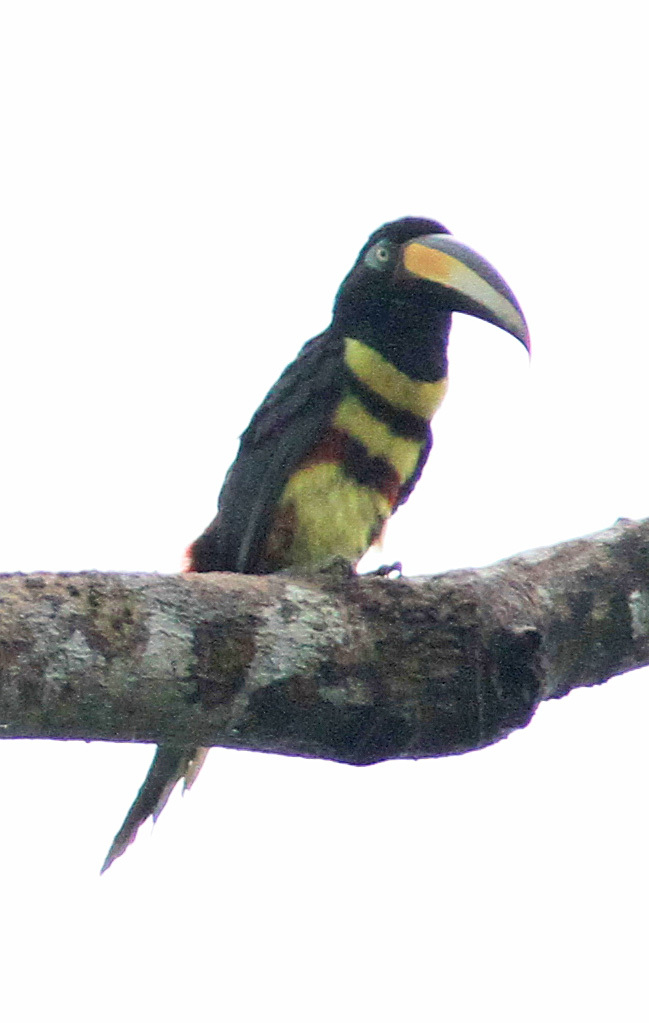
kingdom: Animalia
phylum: Chordata
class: Aves
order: Piciformes
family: Ramphastidae
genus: Pteroglossus
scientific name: Pteroglossus pluricinctus
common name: Many-banded aracari
